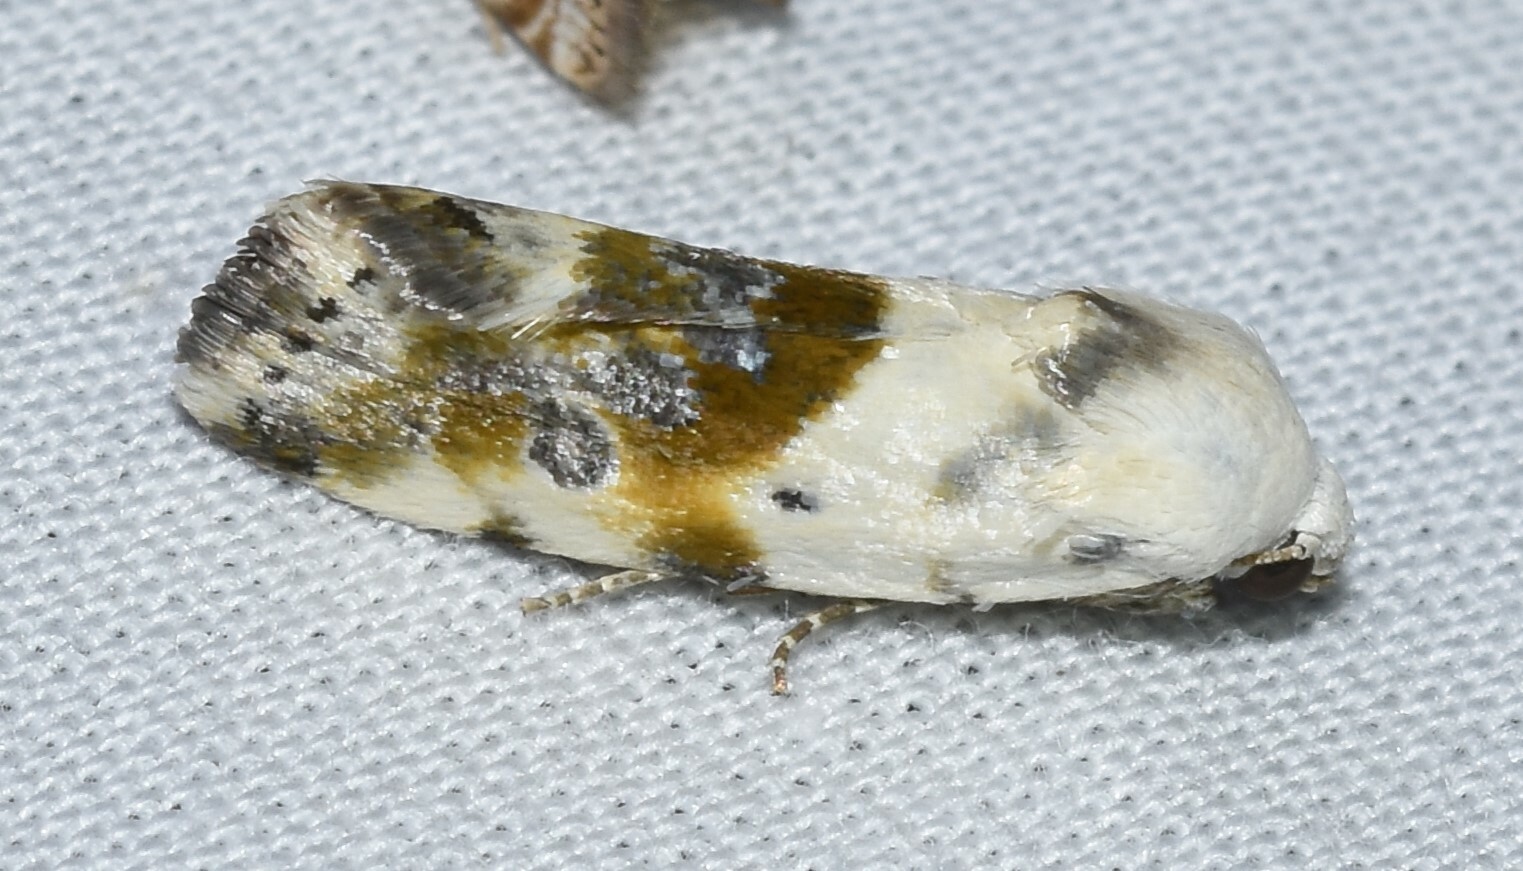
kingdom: Animalia
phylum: Arthropoda
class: Insecta
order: Lepidoptera
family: Noctuidae
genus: Acontia
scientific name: Acontia candefacta
